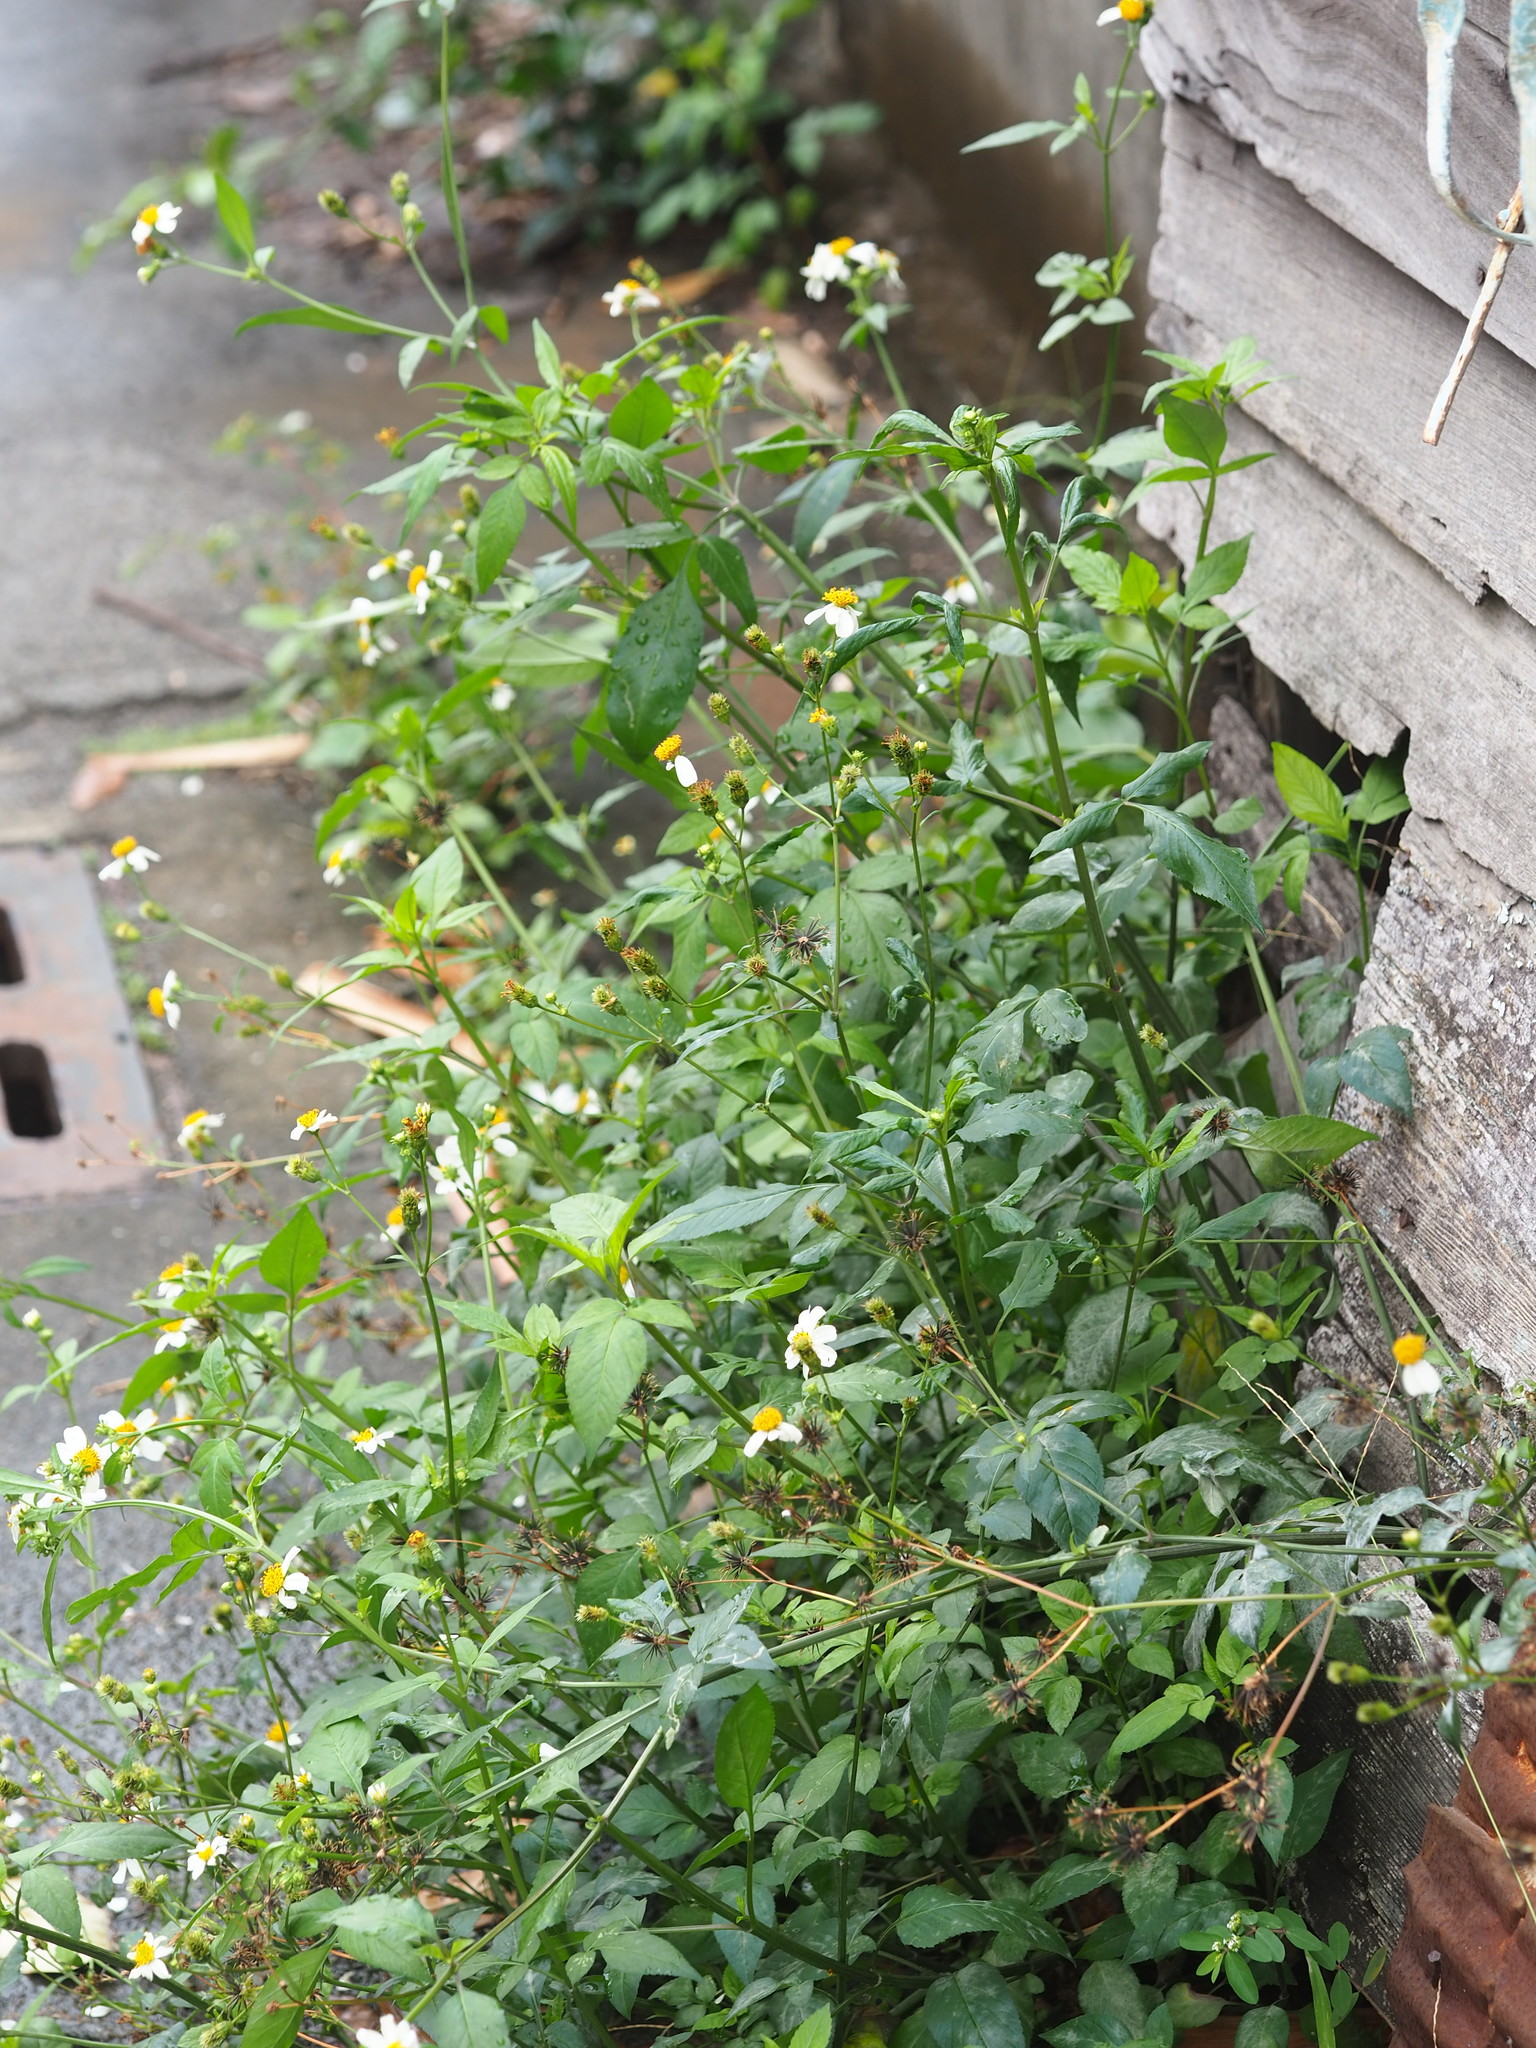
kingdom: Plantae
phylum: Tracheophyta
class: Magnoliopsida
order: Asterales
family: Asteraceae
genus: Bidens
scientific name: Bidens alba
